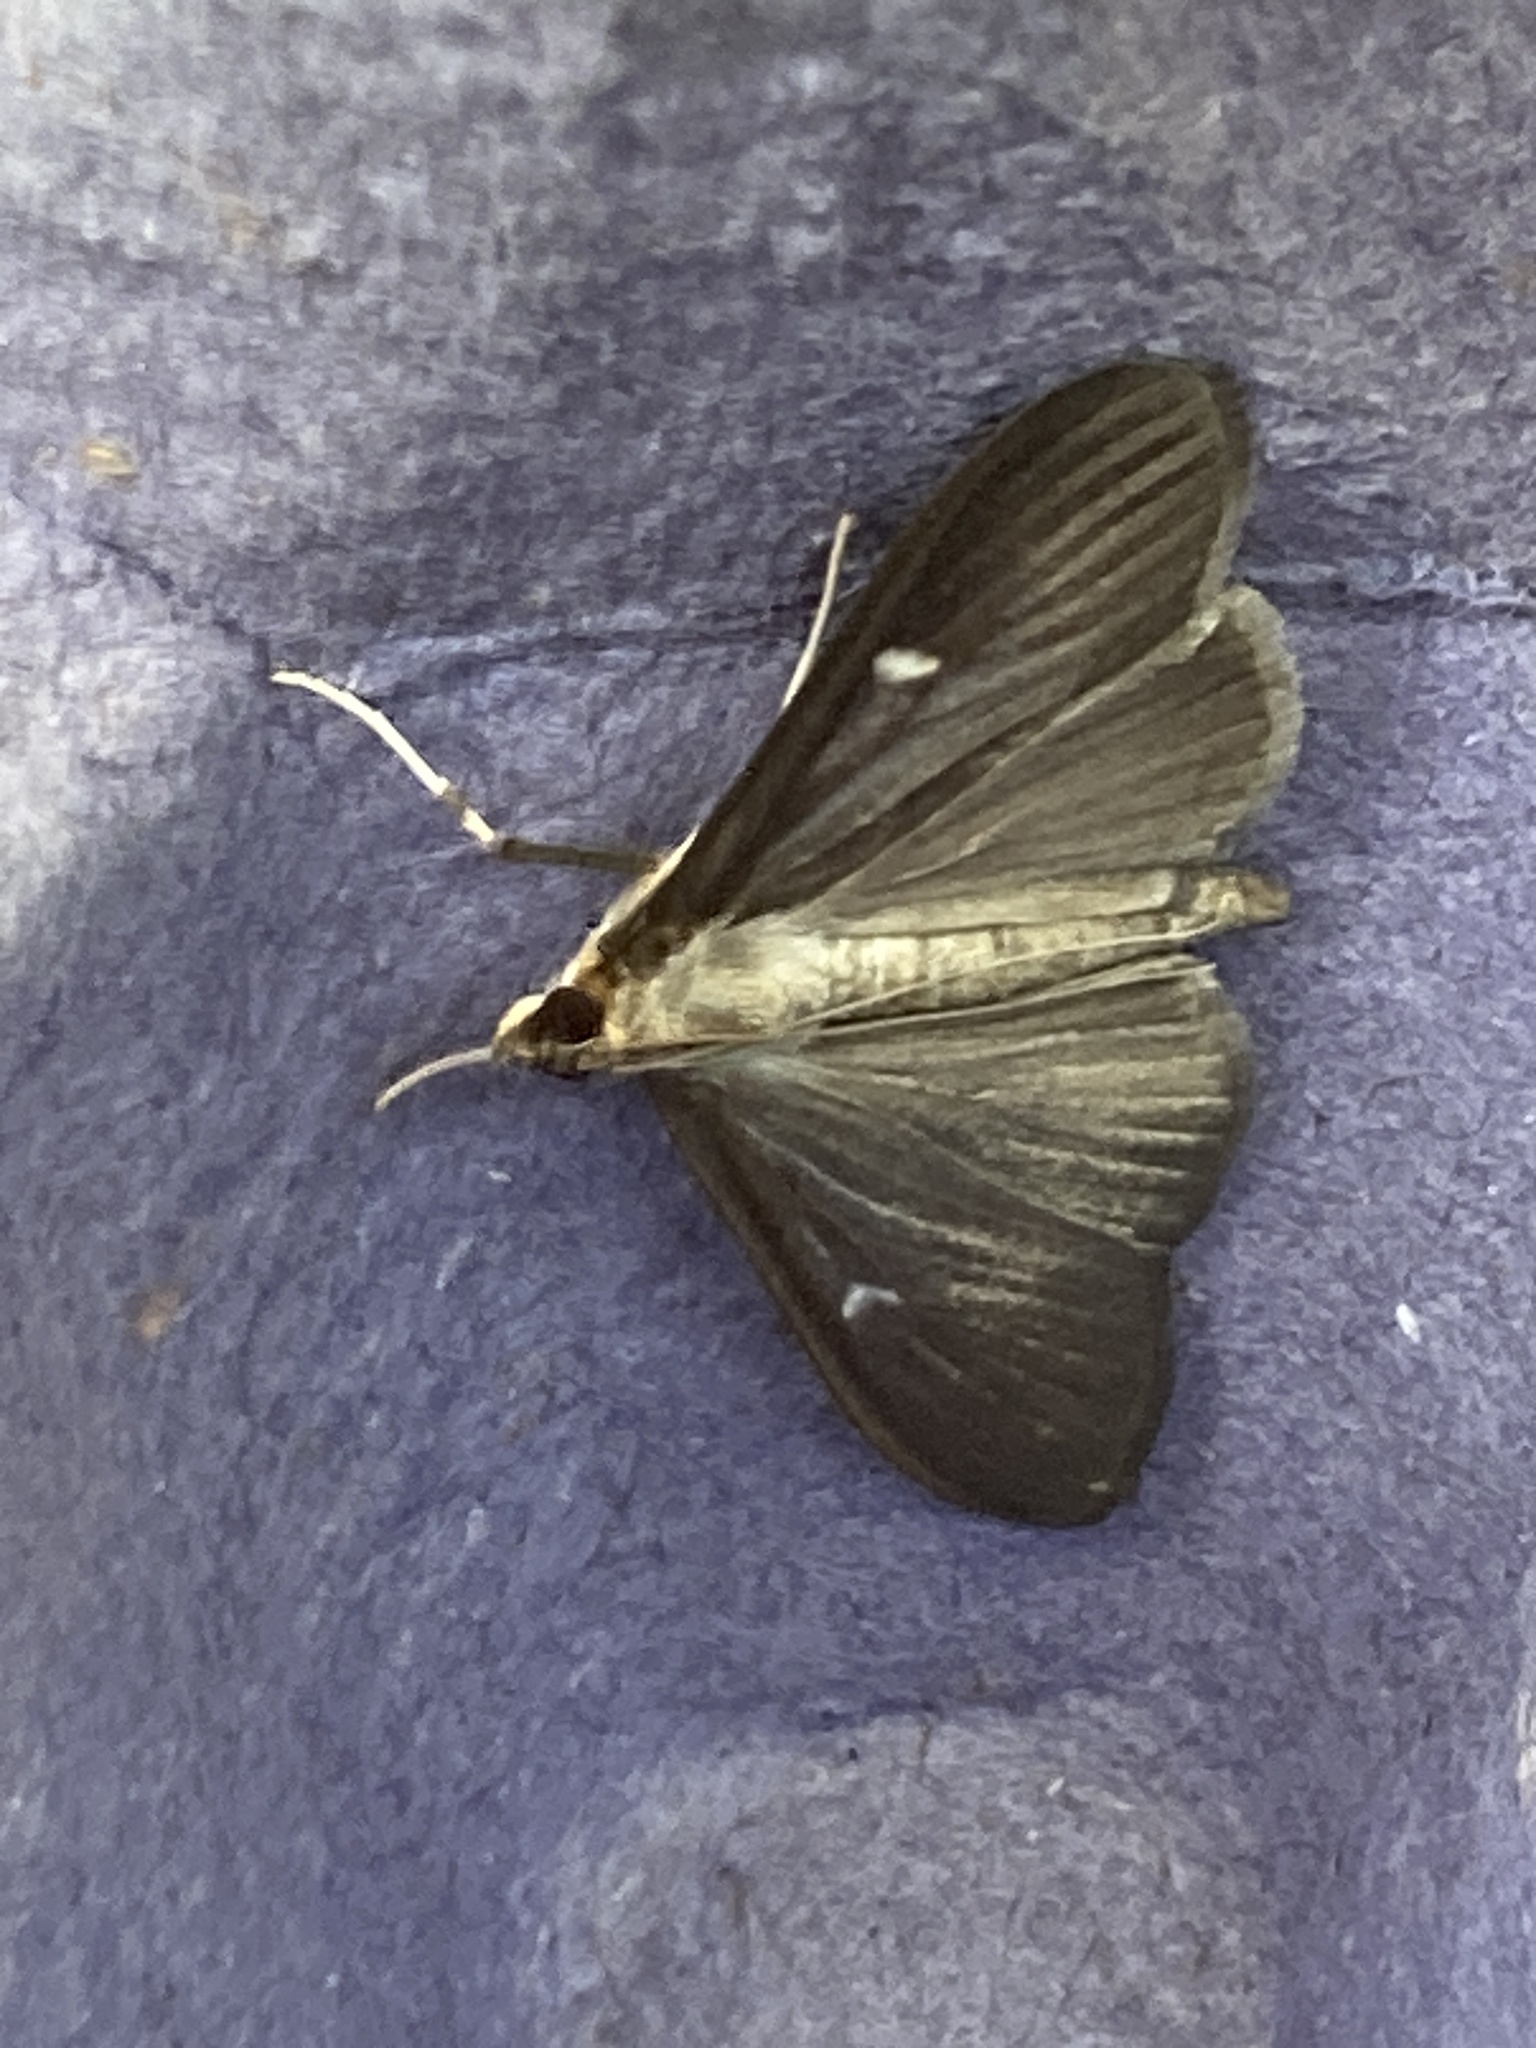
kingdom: Animalia
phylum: Arthropoda
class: Insecta
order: Lepidoptera
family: Crambidae
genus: Cydalima
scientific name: Cydalima perspectalis
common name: Box tree moth
